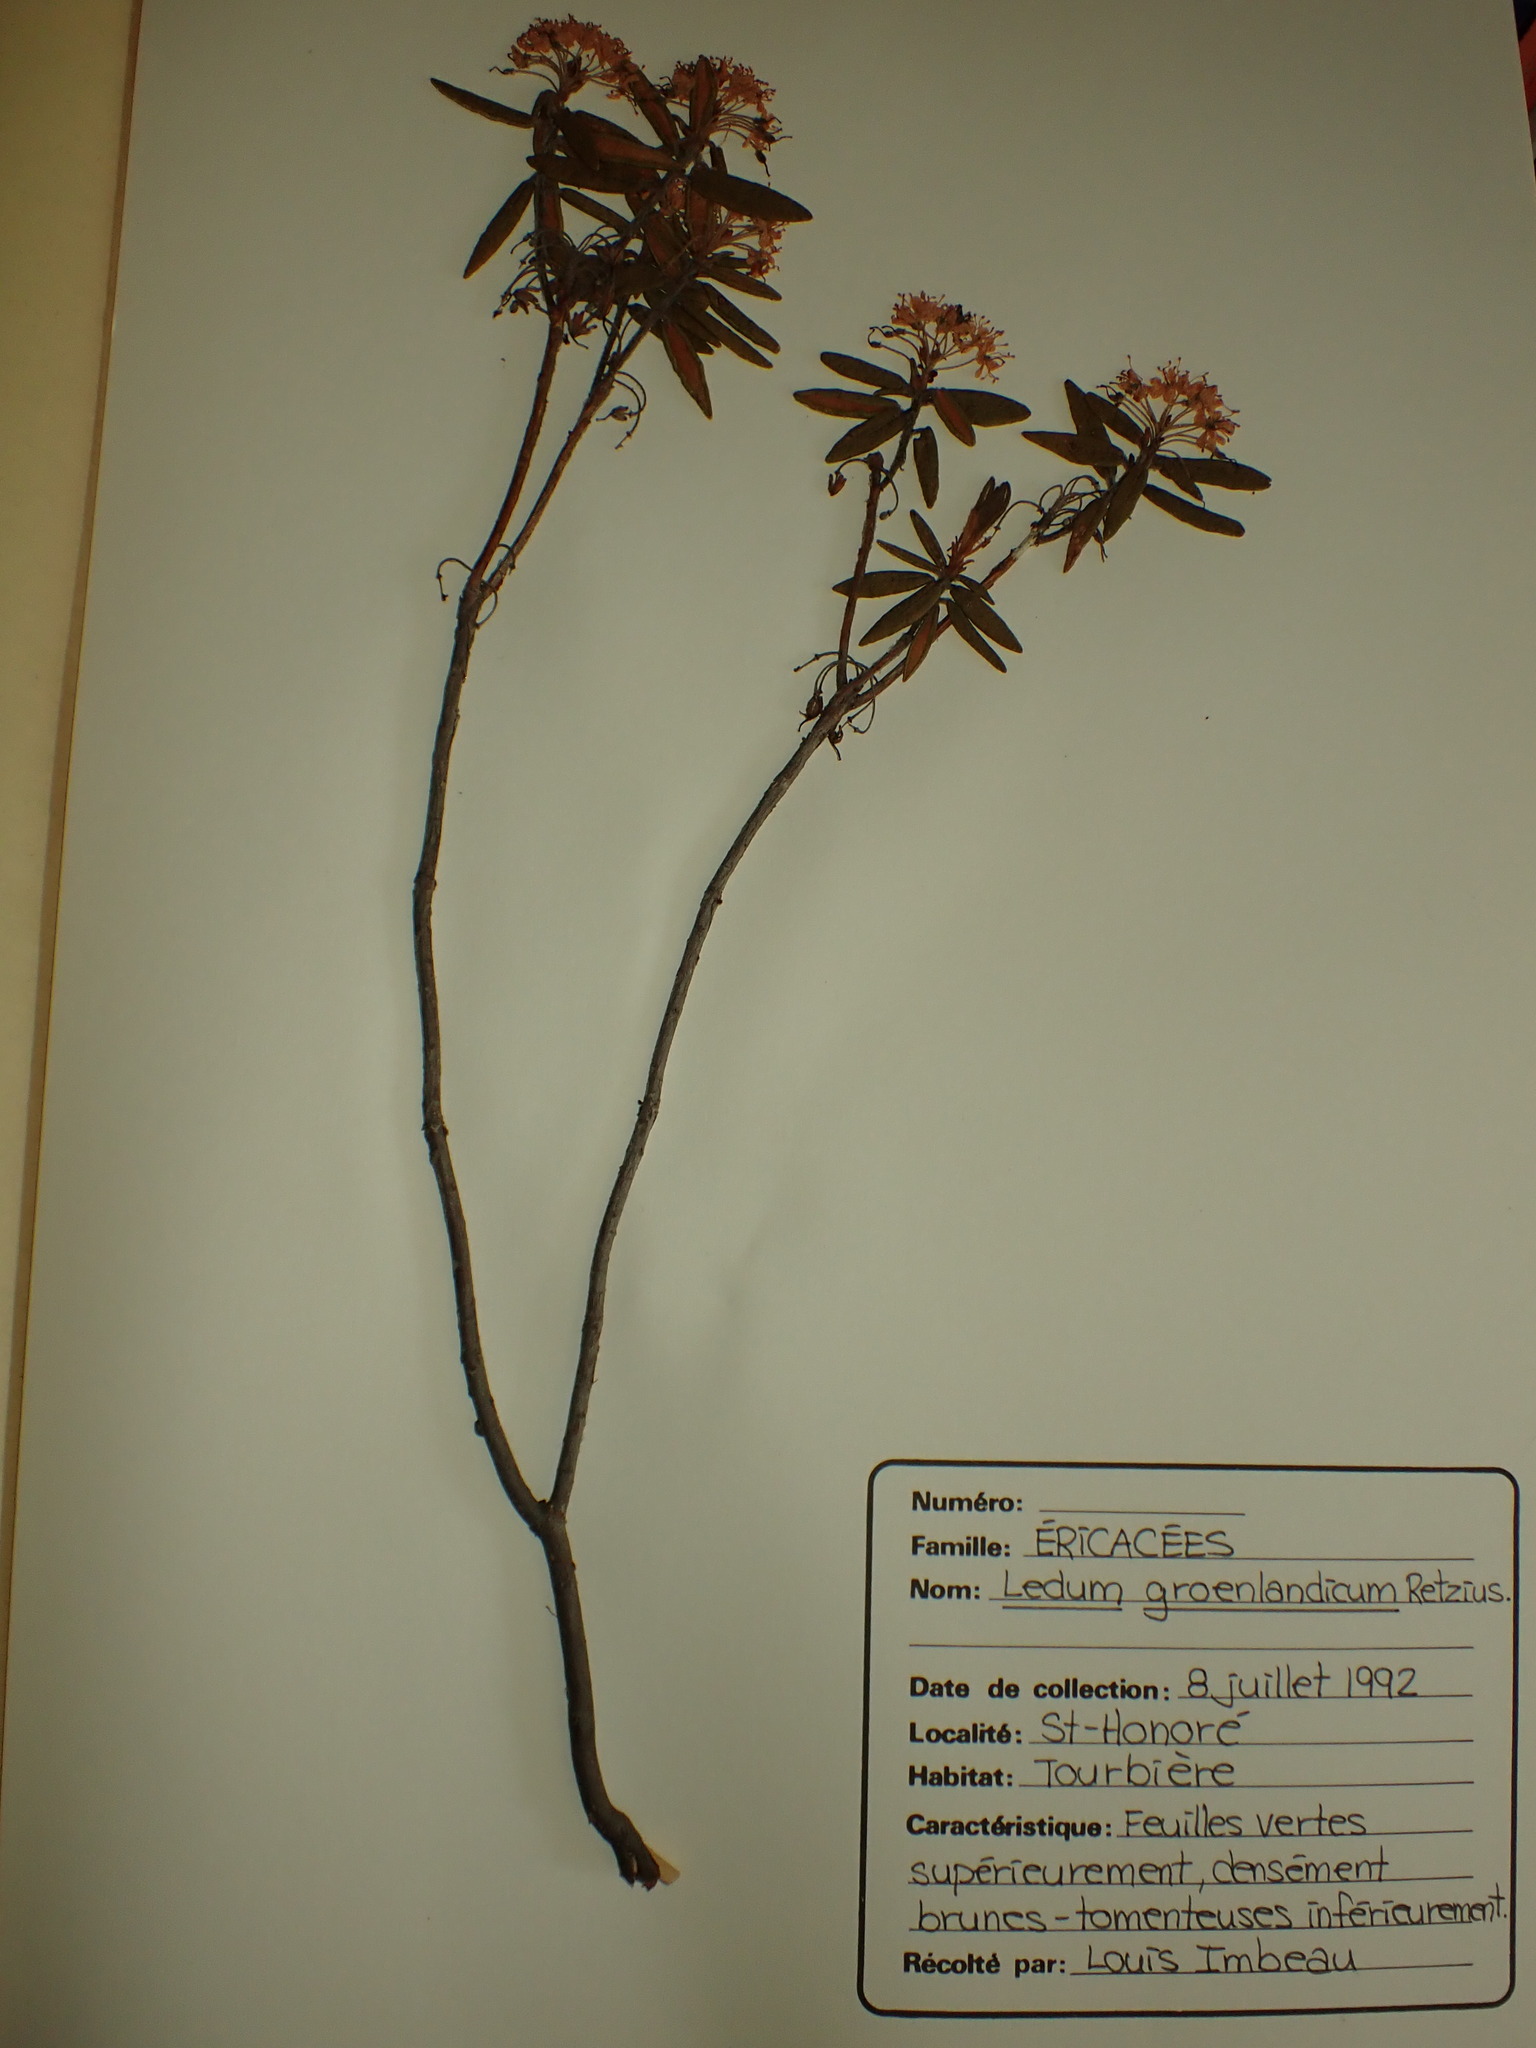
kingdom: Plantae
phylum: Tracheophyta
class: Magnoliopsida
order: Ericales
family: Ericaceae
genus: Rhododendron
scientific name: Rhododendron groenlandicum
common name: Bog labrador tea
